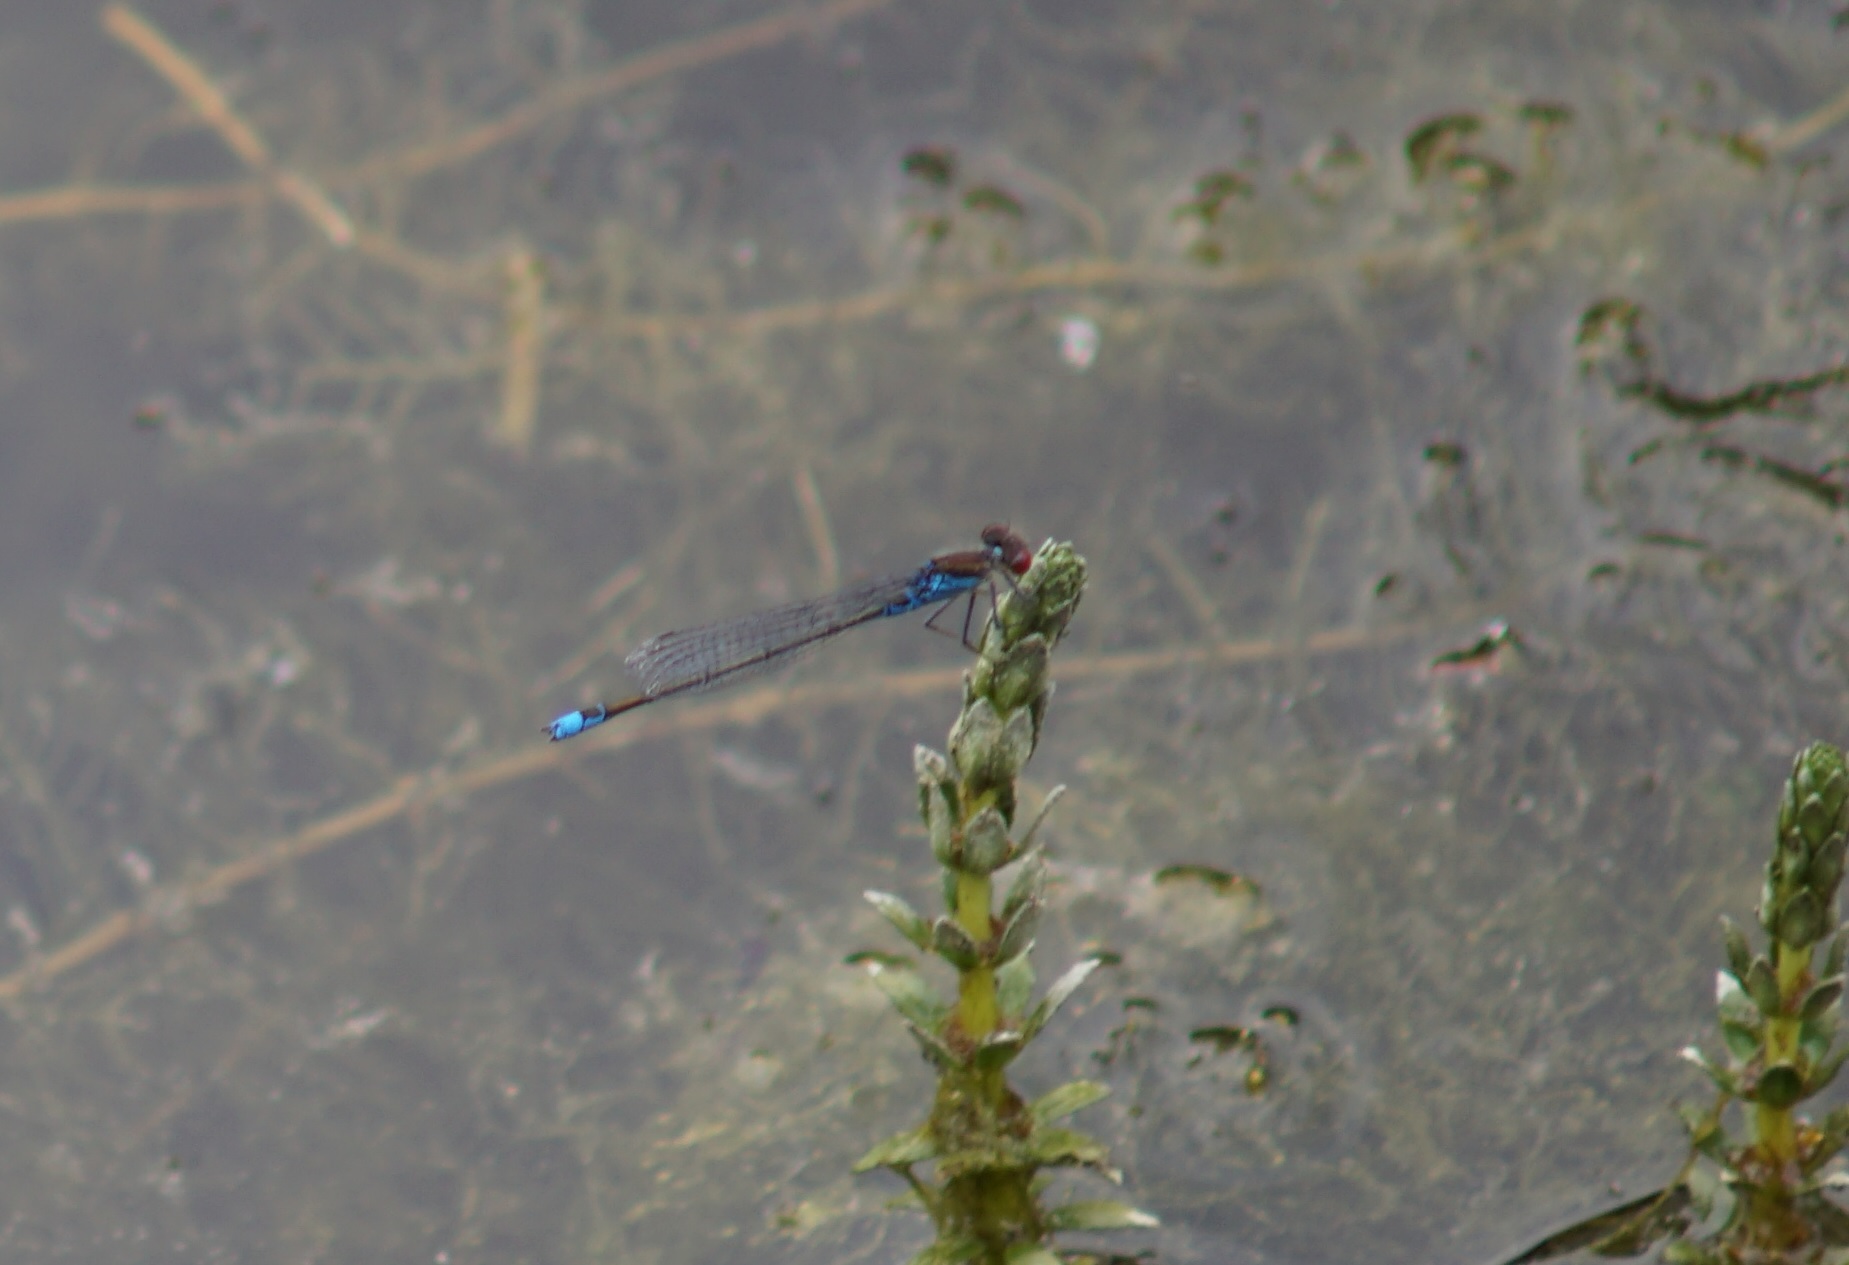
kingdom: Animalia
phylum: Arthropoda
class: Insecta
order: Odonata
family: Coenagrionidae
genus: Erythromma
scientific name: Erythromma viridulum
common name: Small red-eyed damselfly
